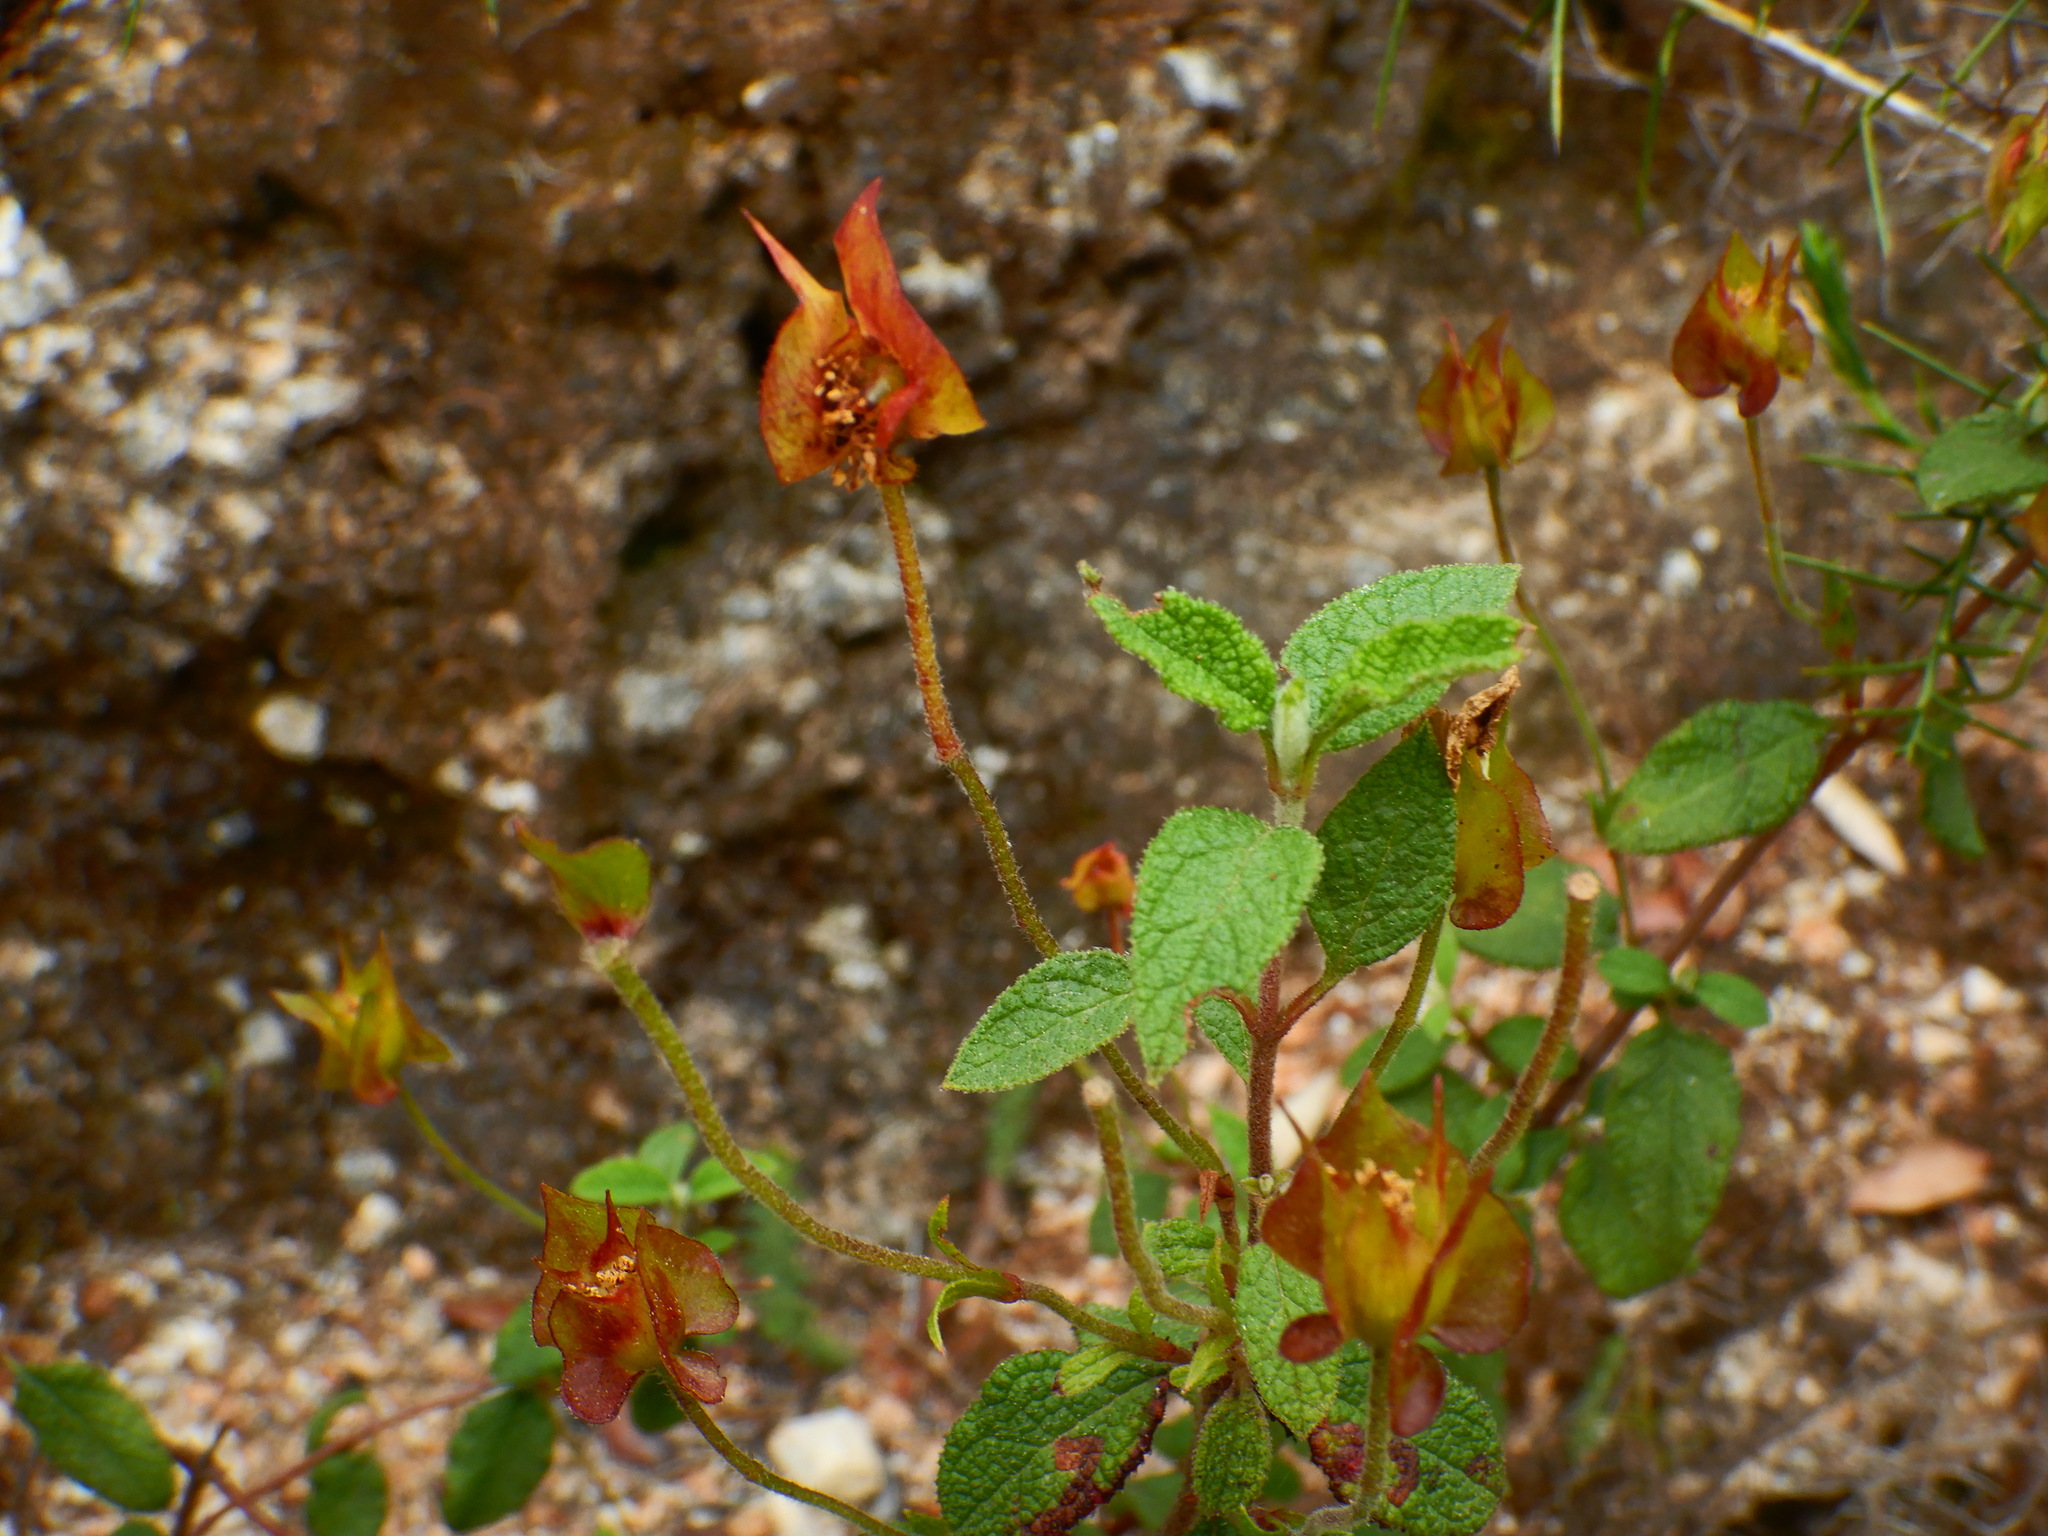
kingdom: Plantae
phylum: Tracheophyta
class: Magnoliopsida
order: Malvales
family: Cistaceae
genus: Cistus
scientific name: Cistus salviifolius
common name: Salvia cistus
